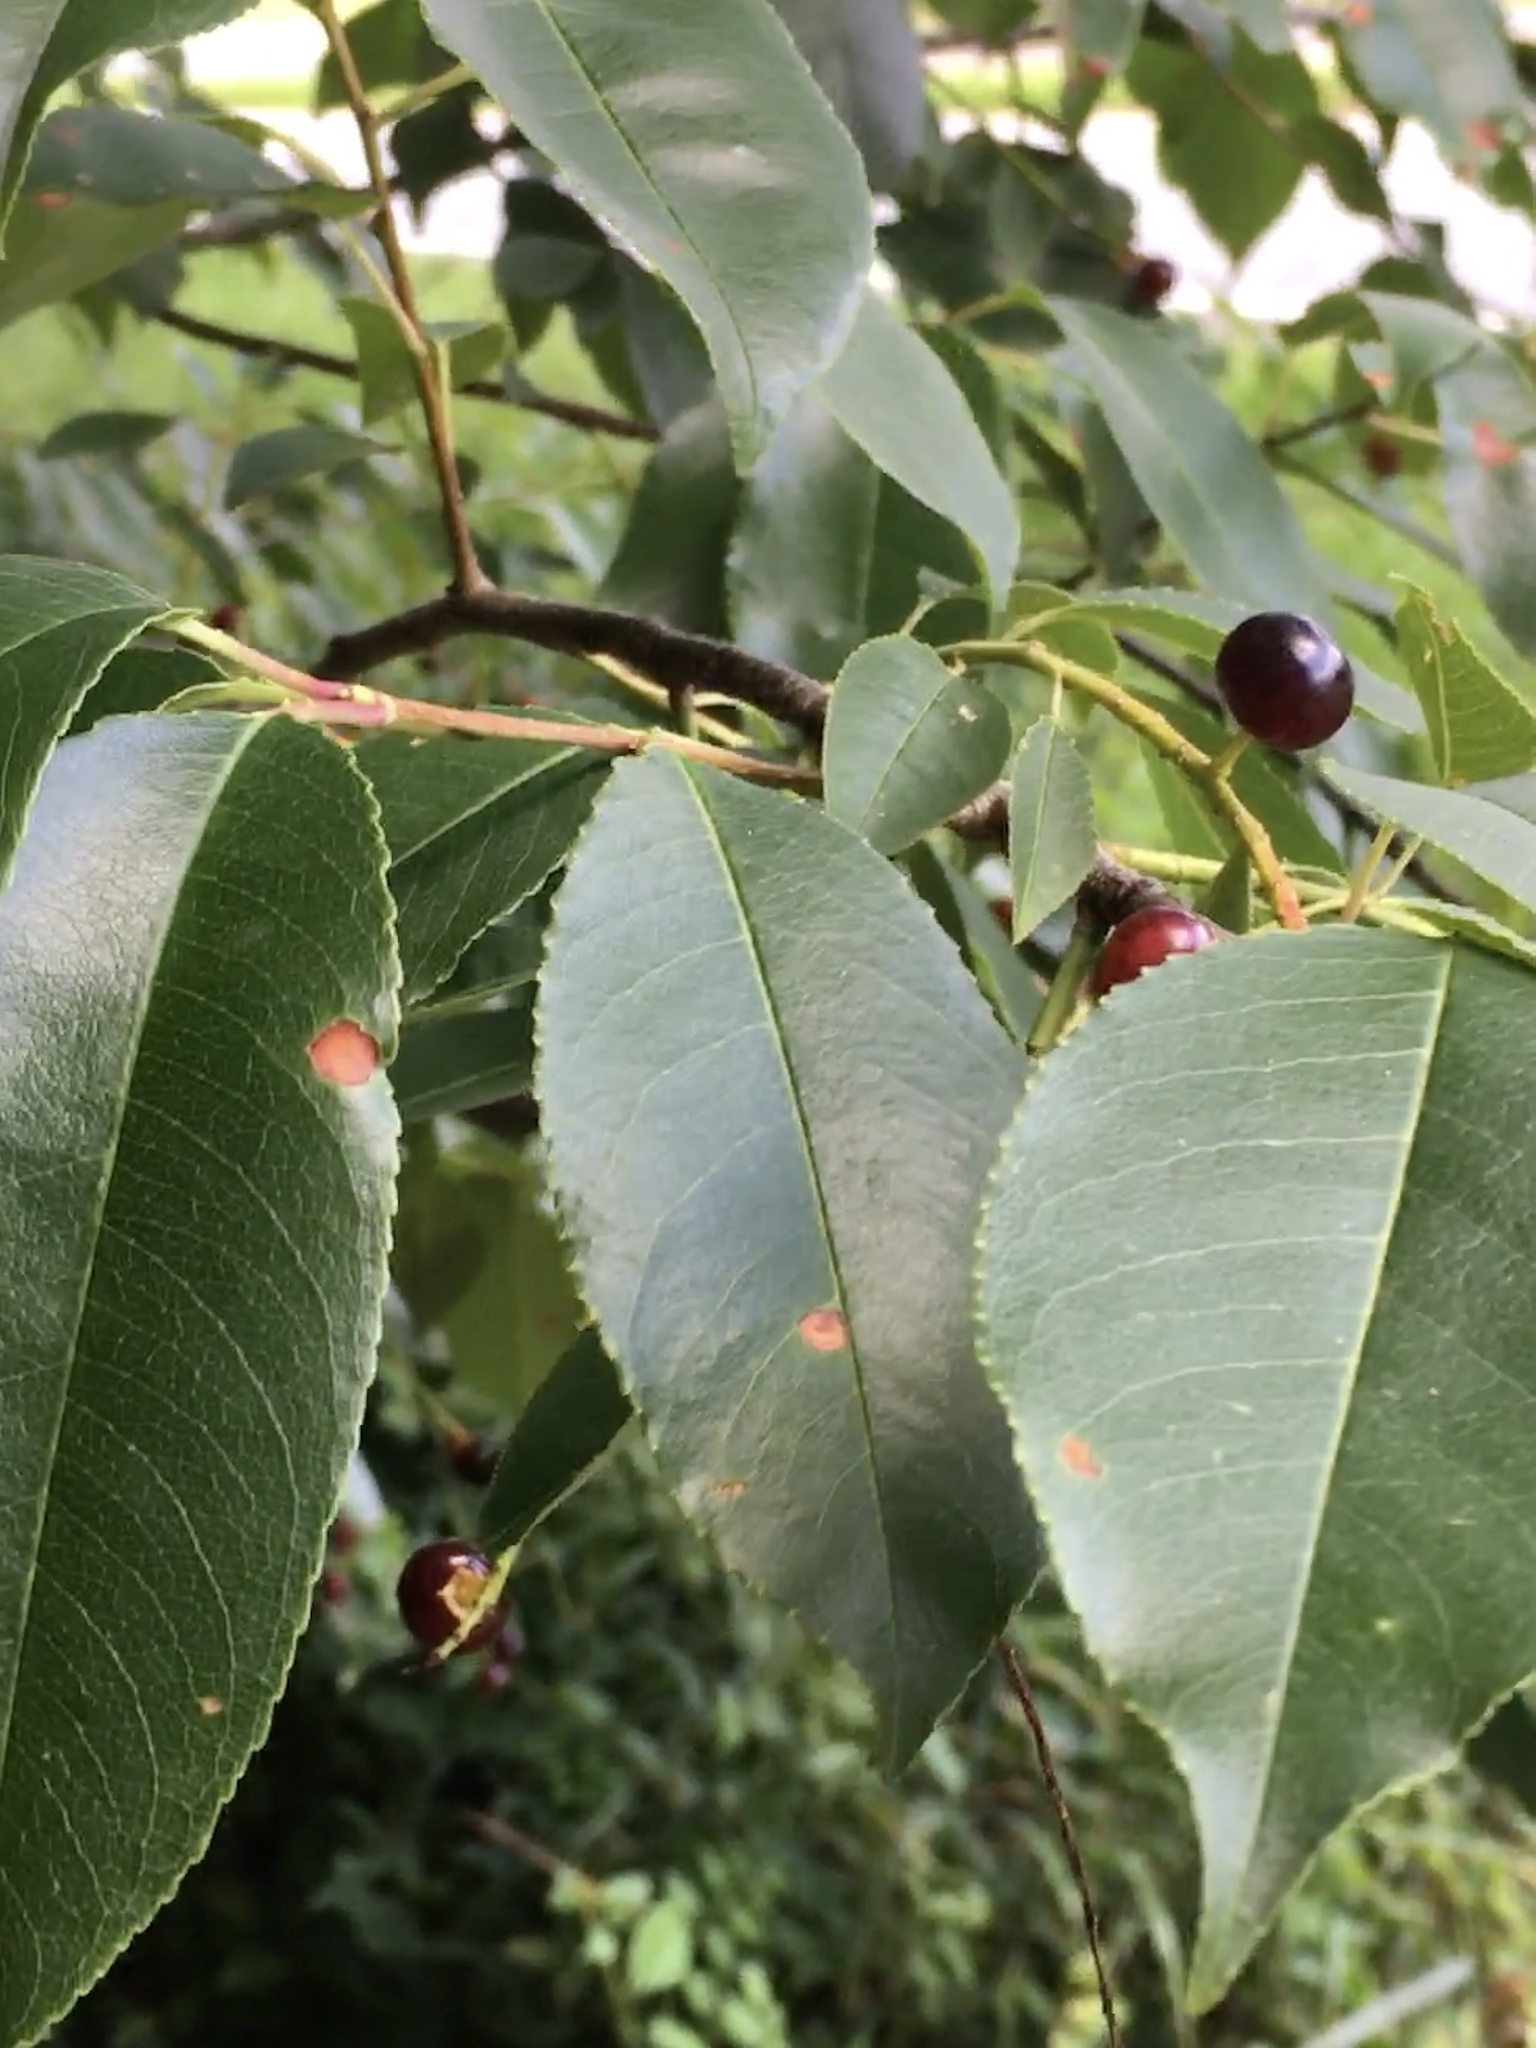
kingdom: Plantae
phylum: Tracheophyta
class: Magnoliopsida
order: Rosales
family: Rosaceae
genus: Prunus
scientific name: Prunus serotina
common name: Black cherry
